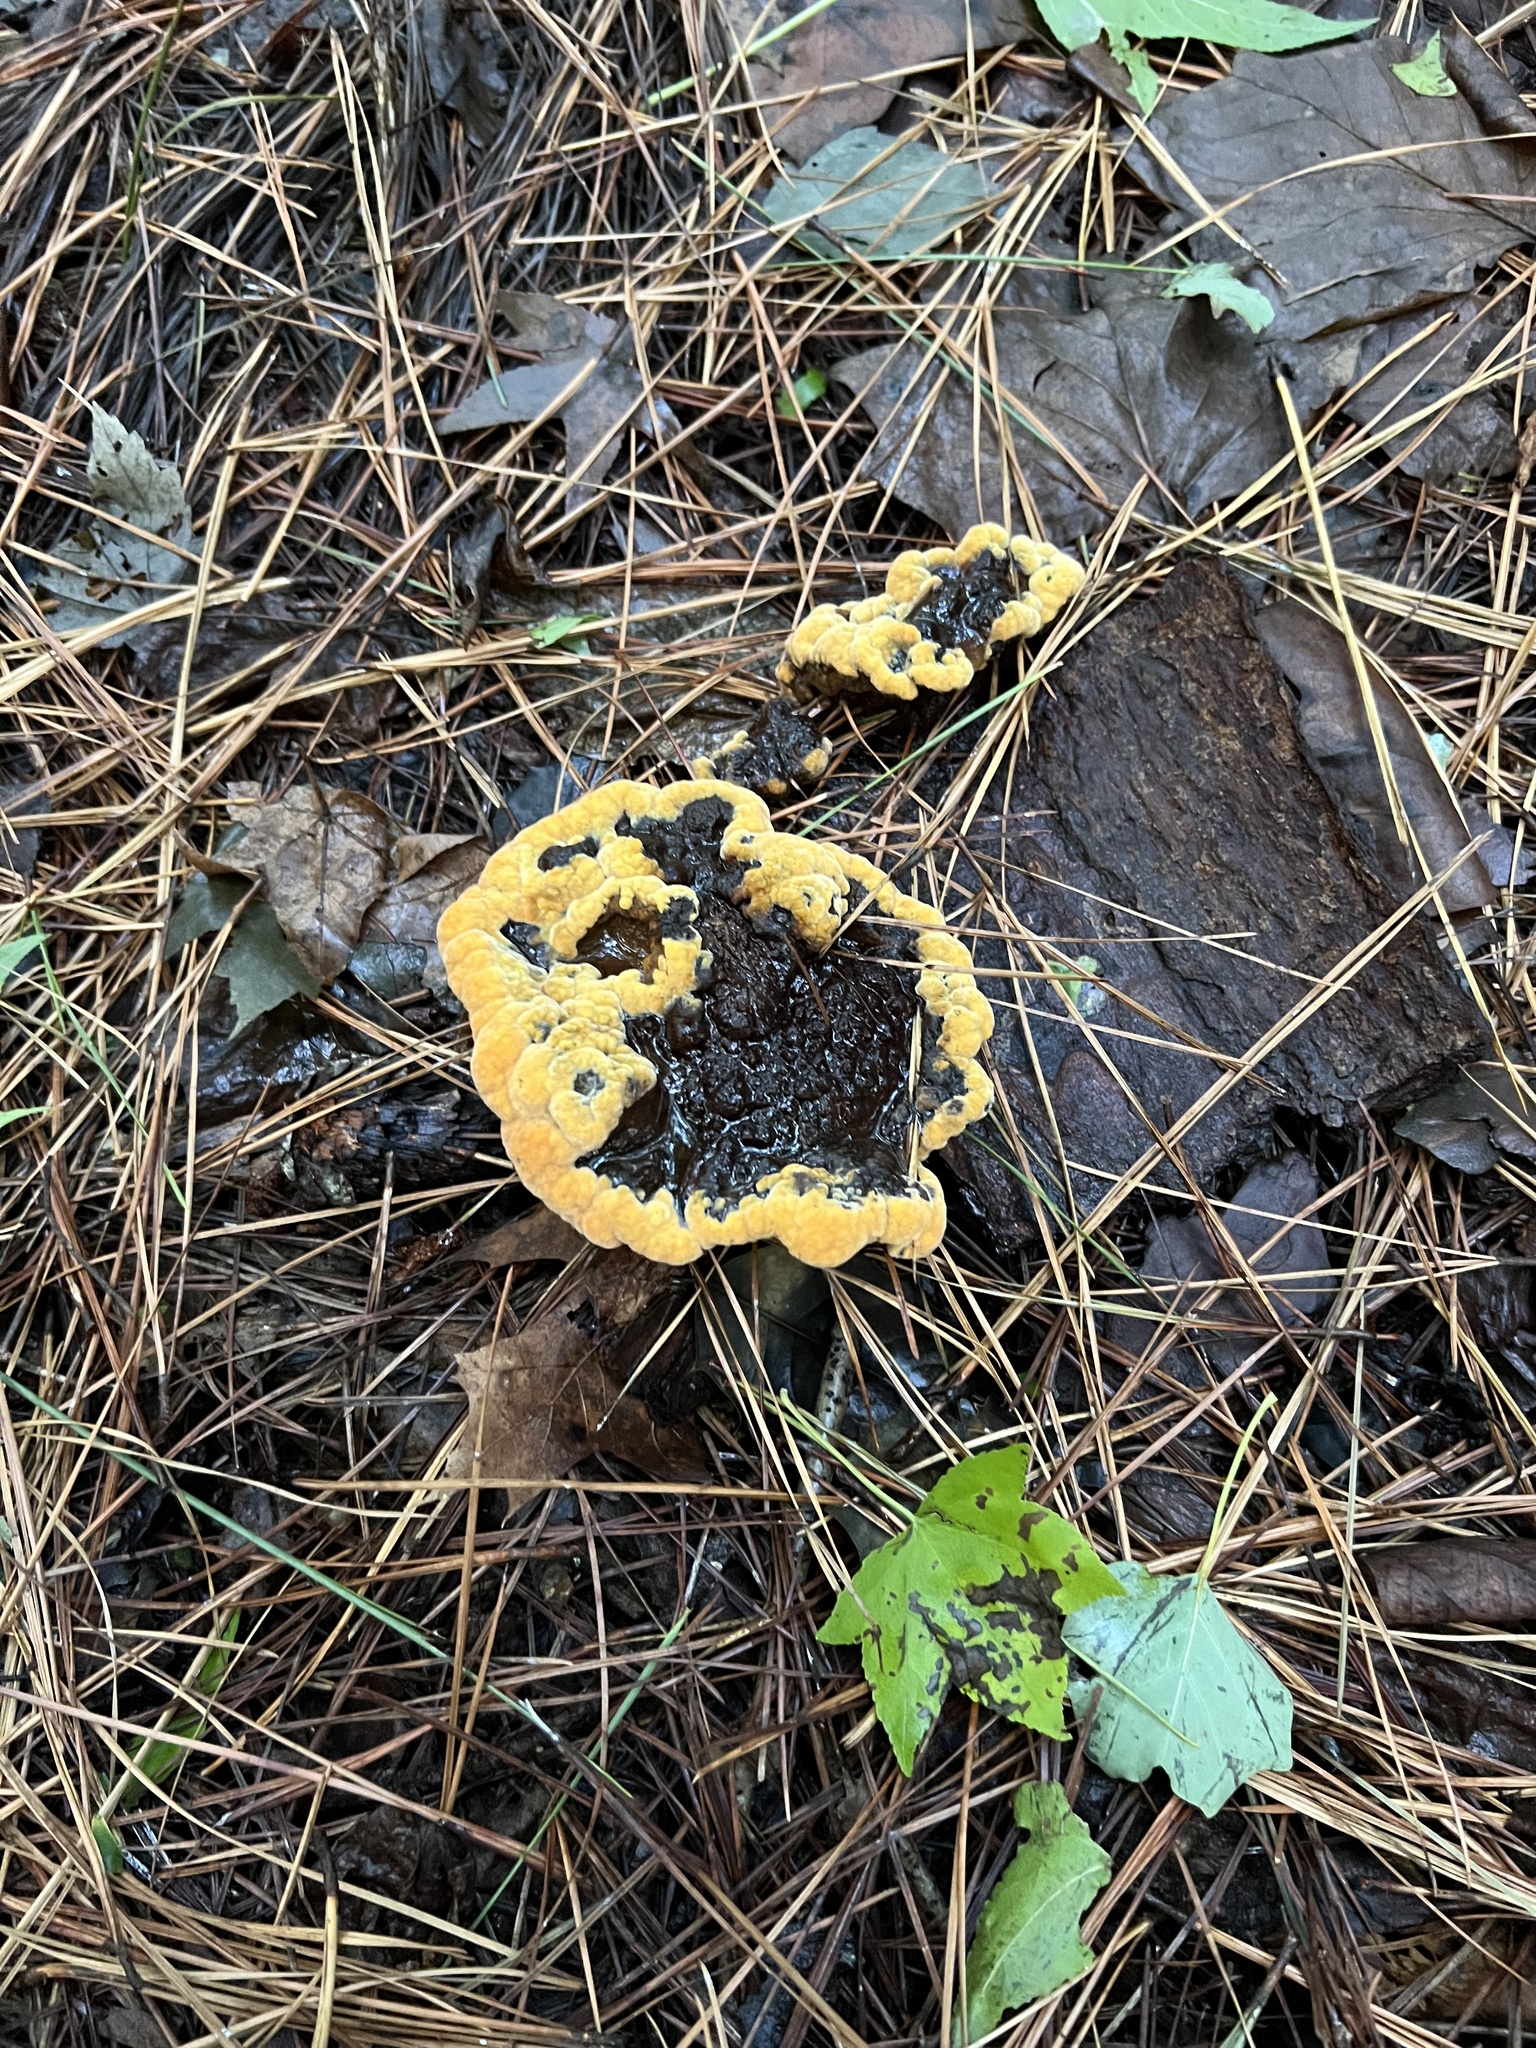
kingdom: Fungi
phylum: Basidiomycota
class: Agaricomycetes
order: Polyporales
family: Laetiporaceae
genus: Phaeolus
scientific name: Phaeolus schweinitzii
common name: Dyer's mazegill
